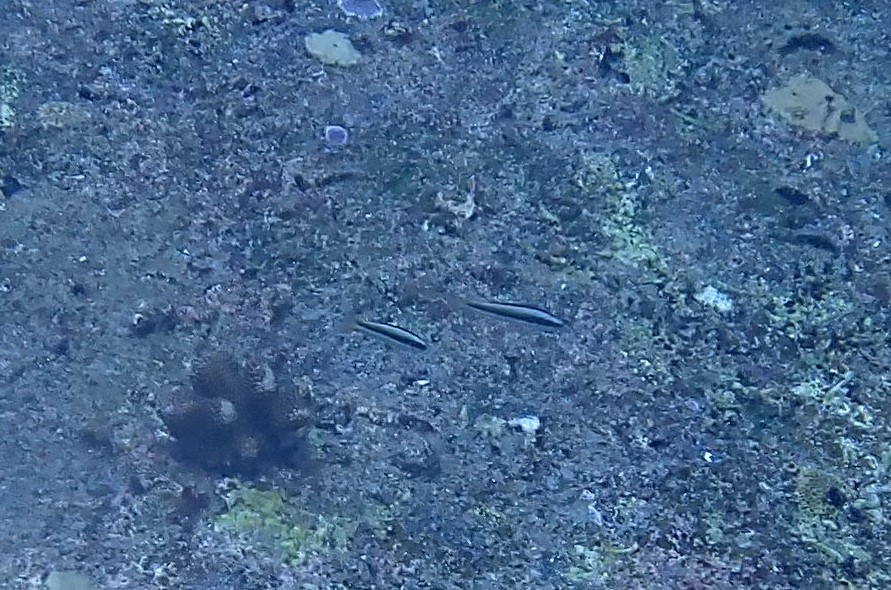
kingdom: Animalia
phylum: Chordata
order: Perciformes
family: Labridae
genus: Thalassoma
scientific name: Thalassoma amblycephalum
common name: Bluehead wrasse
